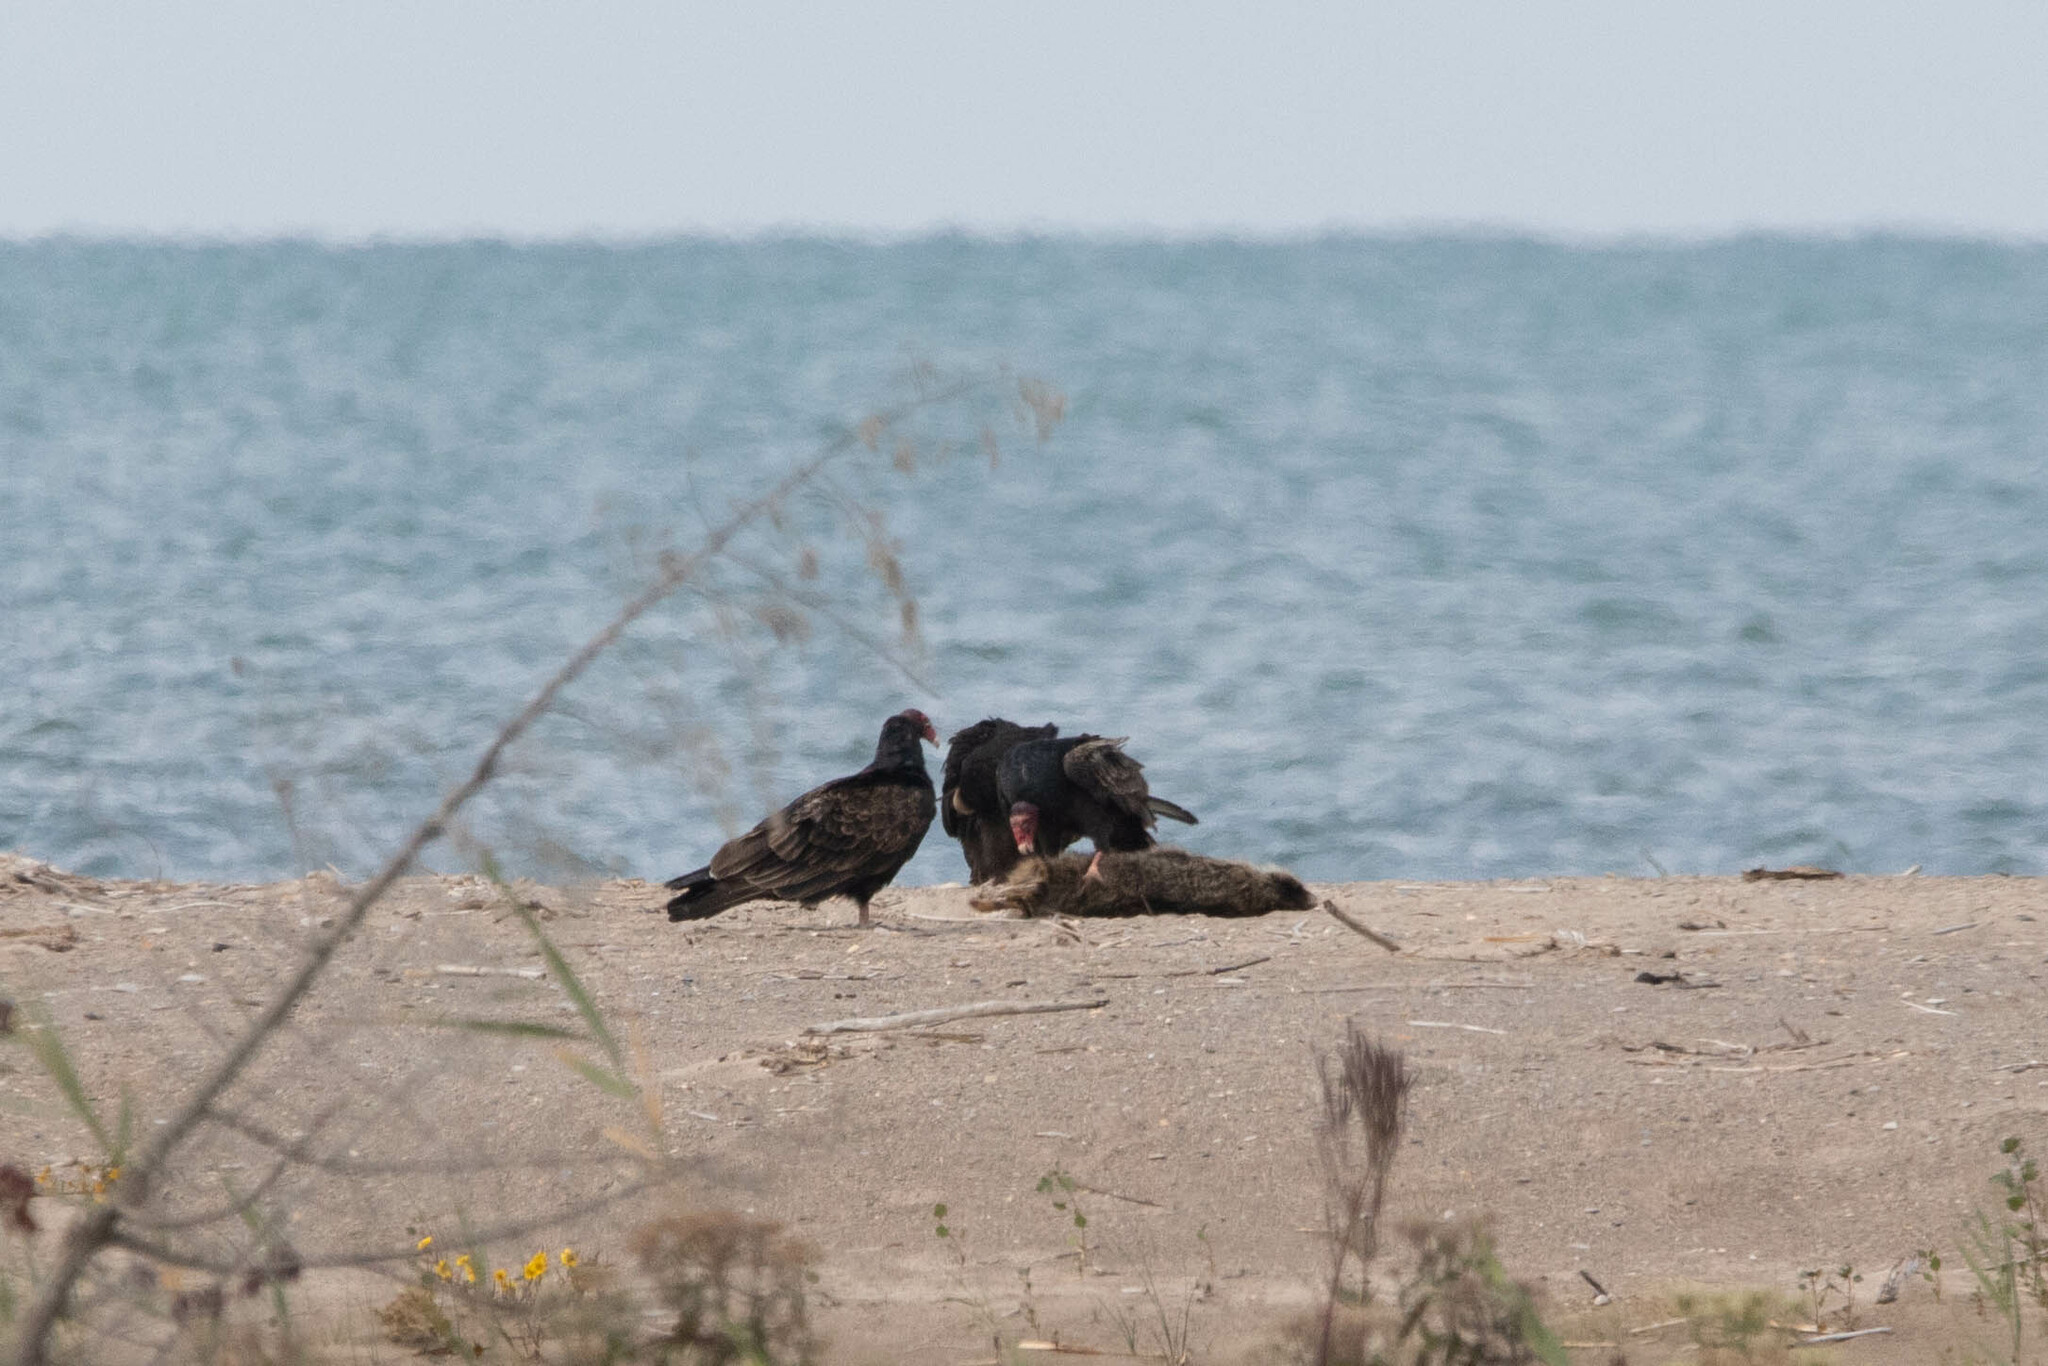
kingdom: Animalia
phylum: Chordata
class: Aves
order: Accipitriformes
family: Cathartidae
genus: Cathartes
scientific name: Cathartes aura
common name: Turkey vulture
